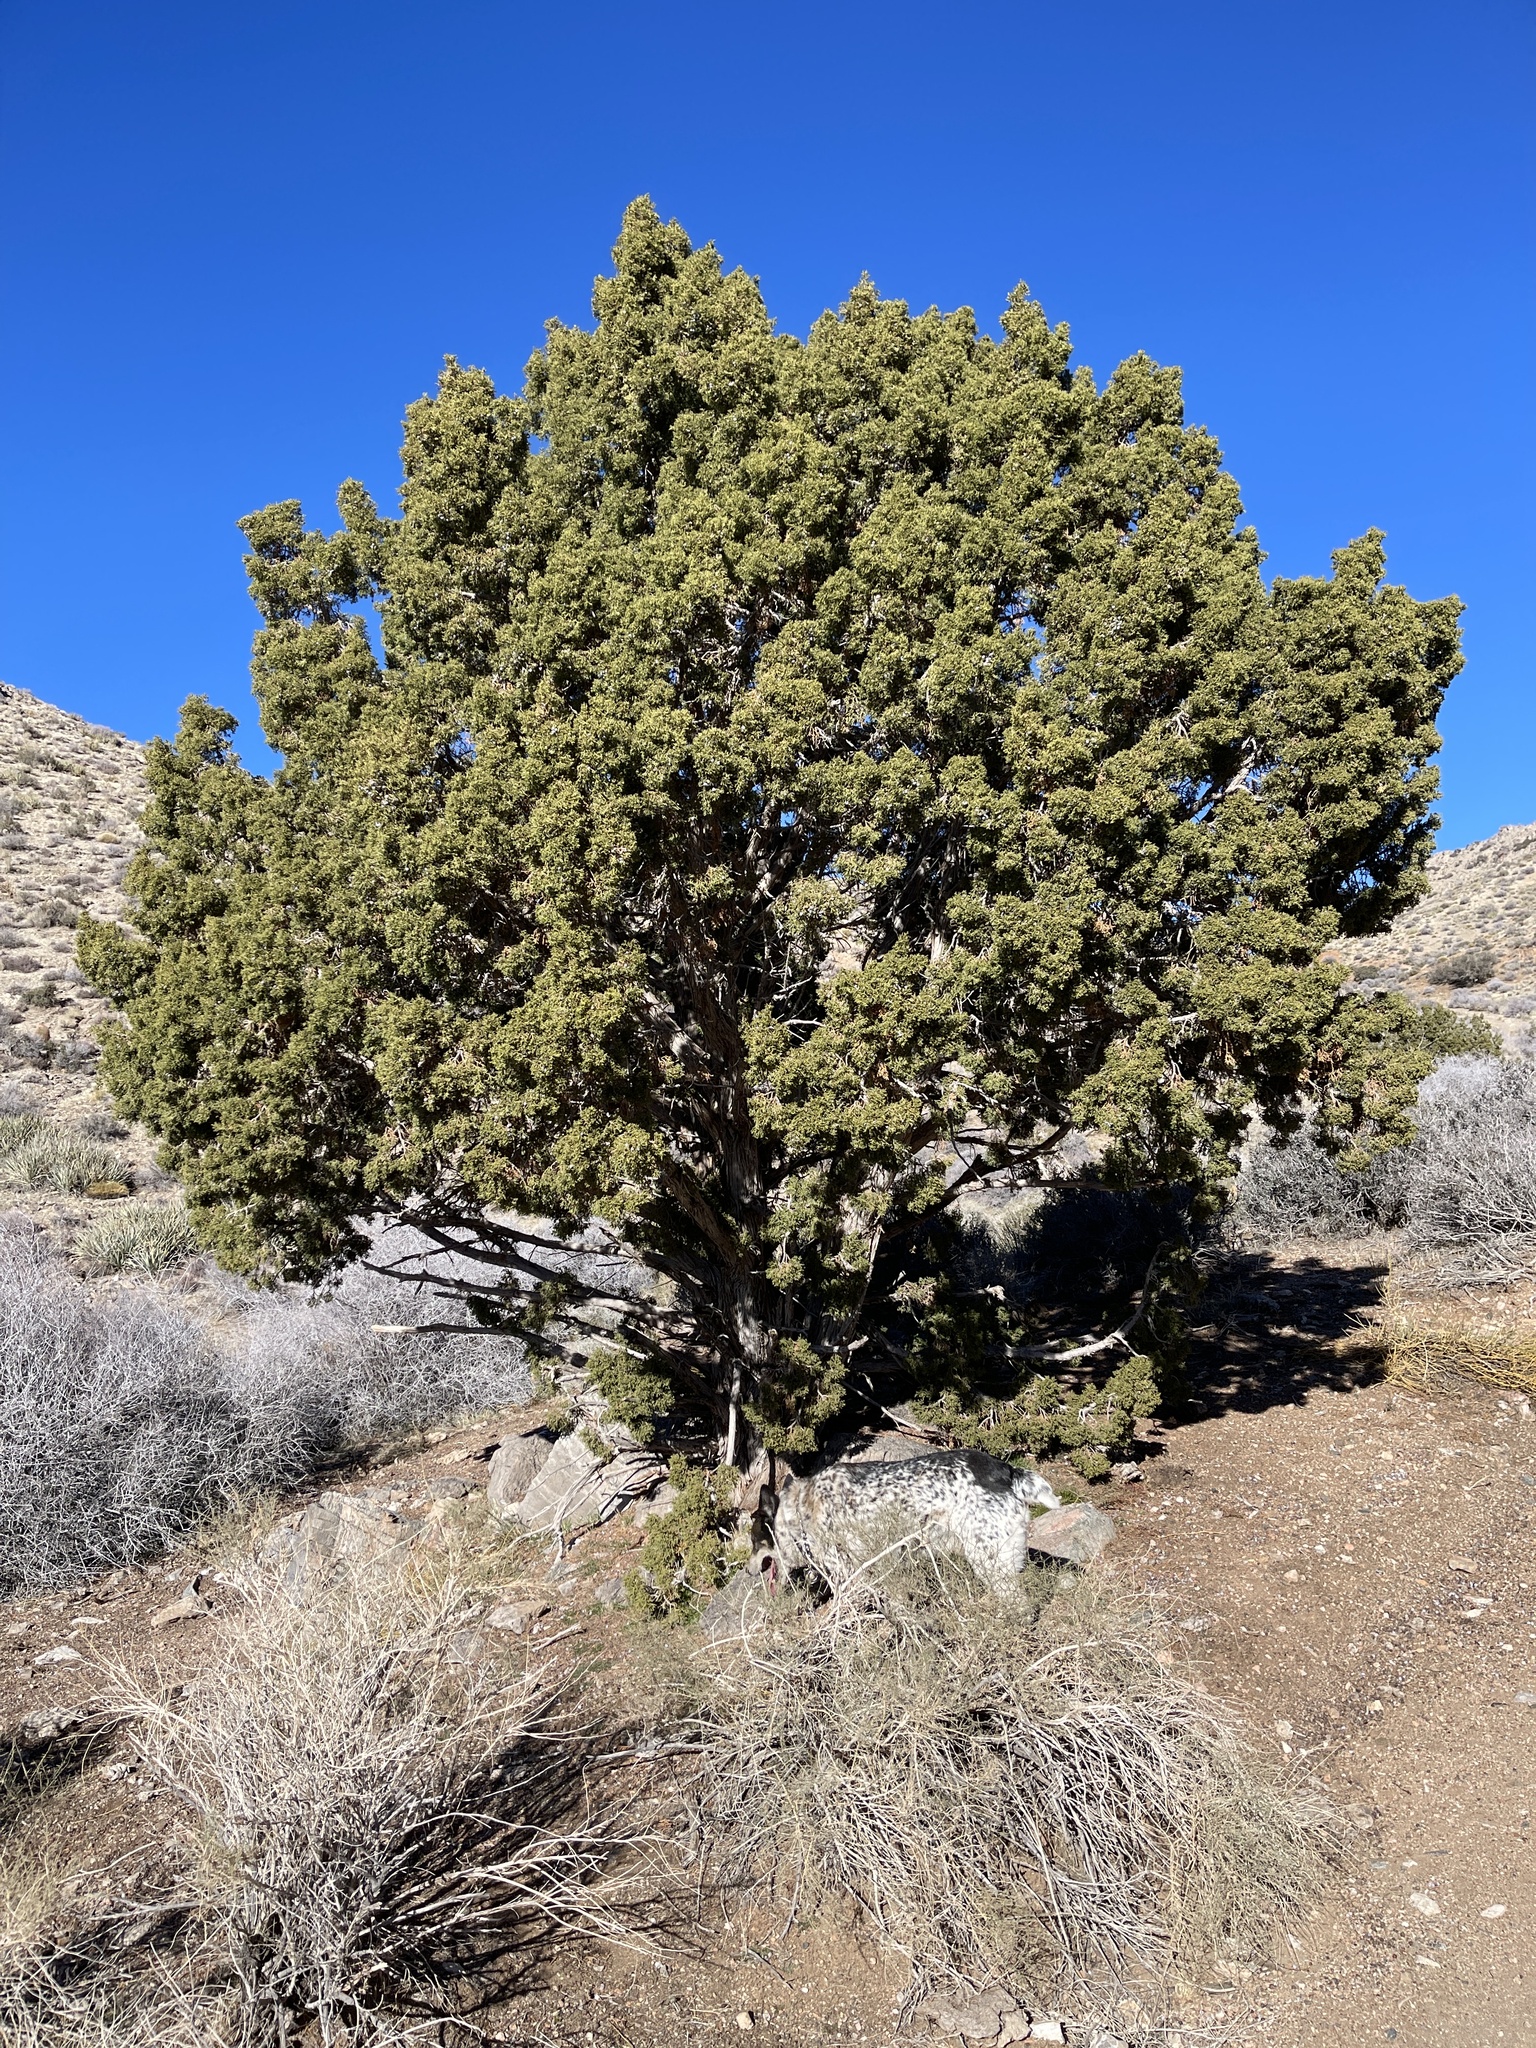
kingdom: Plantae
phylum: Tracheophyta
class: Pinopsida
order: Pinales
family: Cupressaceae
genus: Juniperus
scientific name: Juniperus osteosperma
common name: Utah juniper
